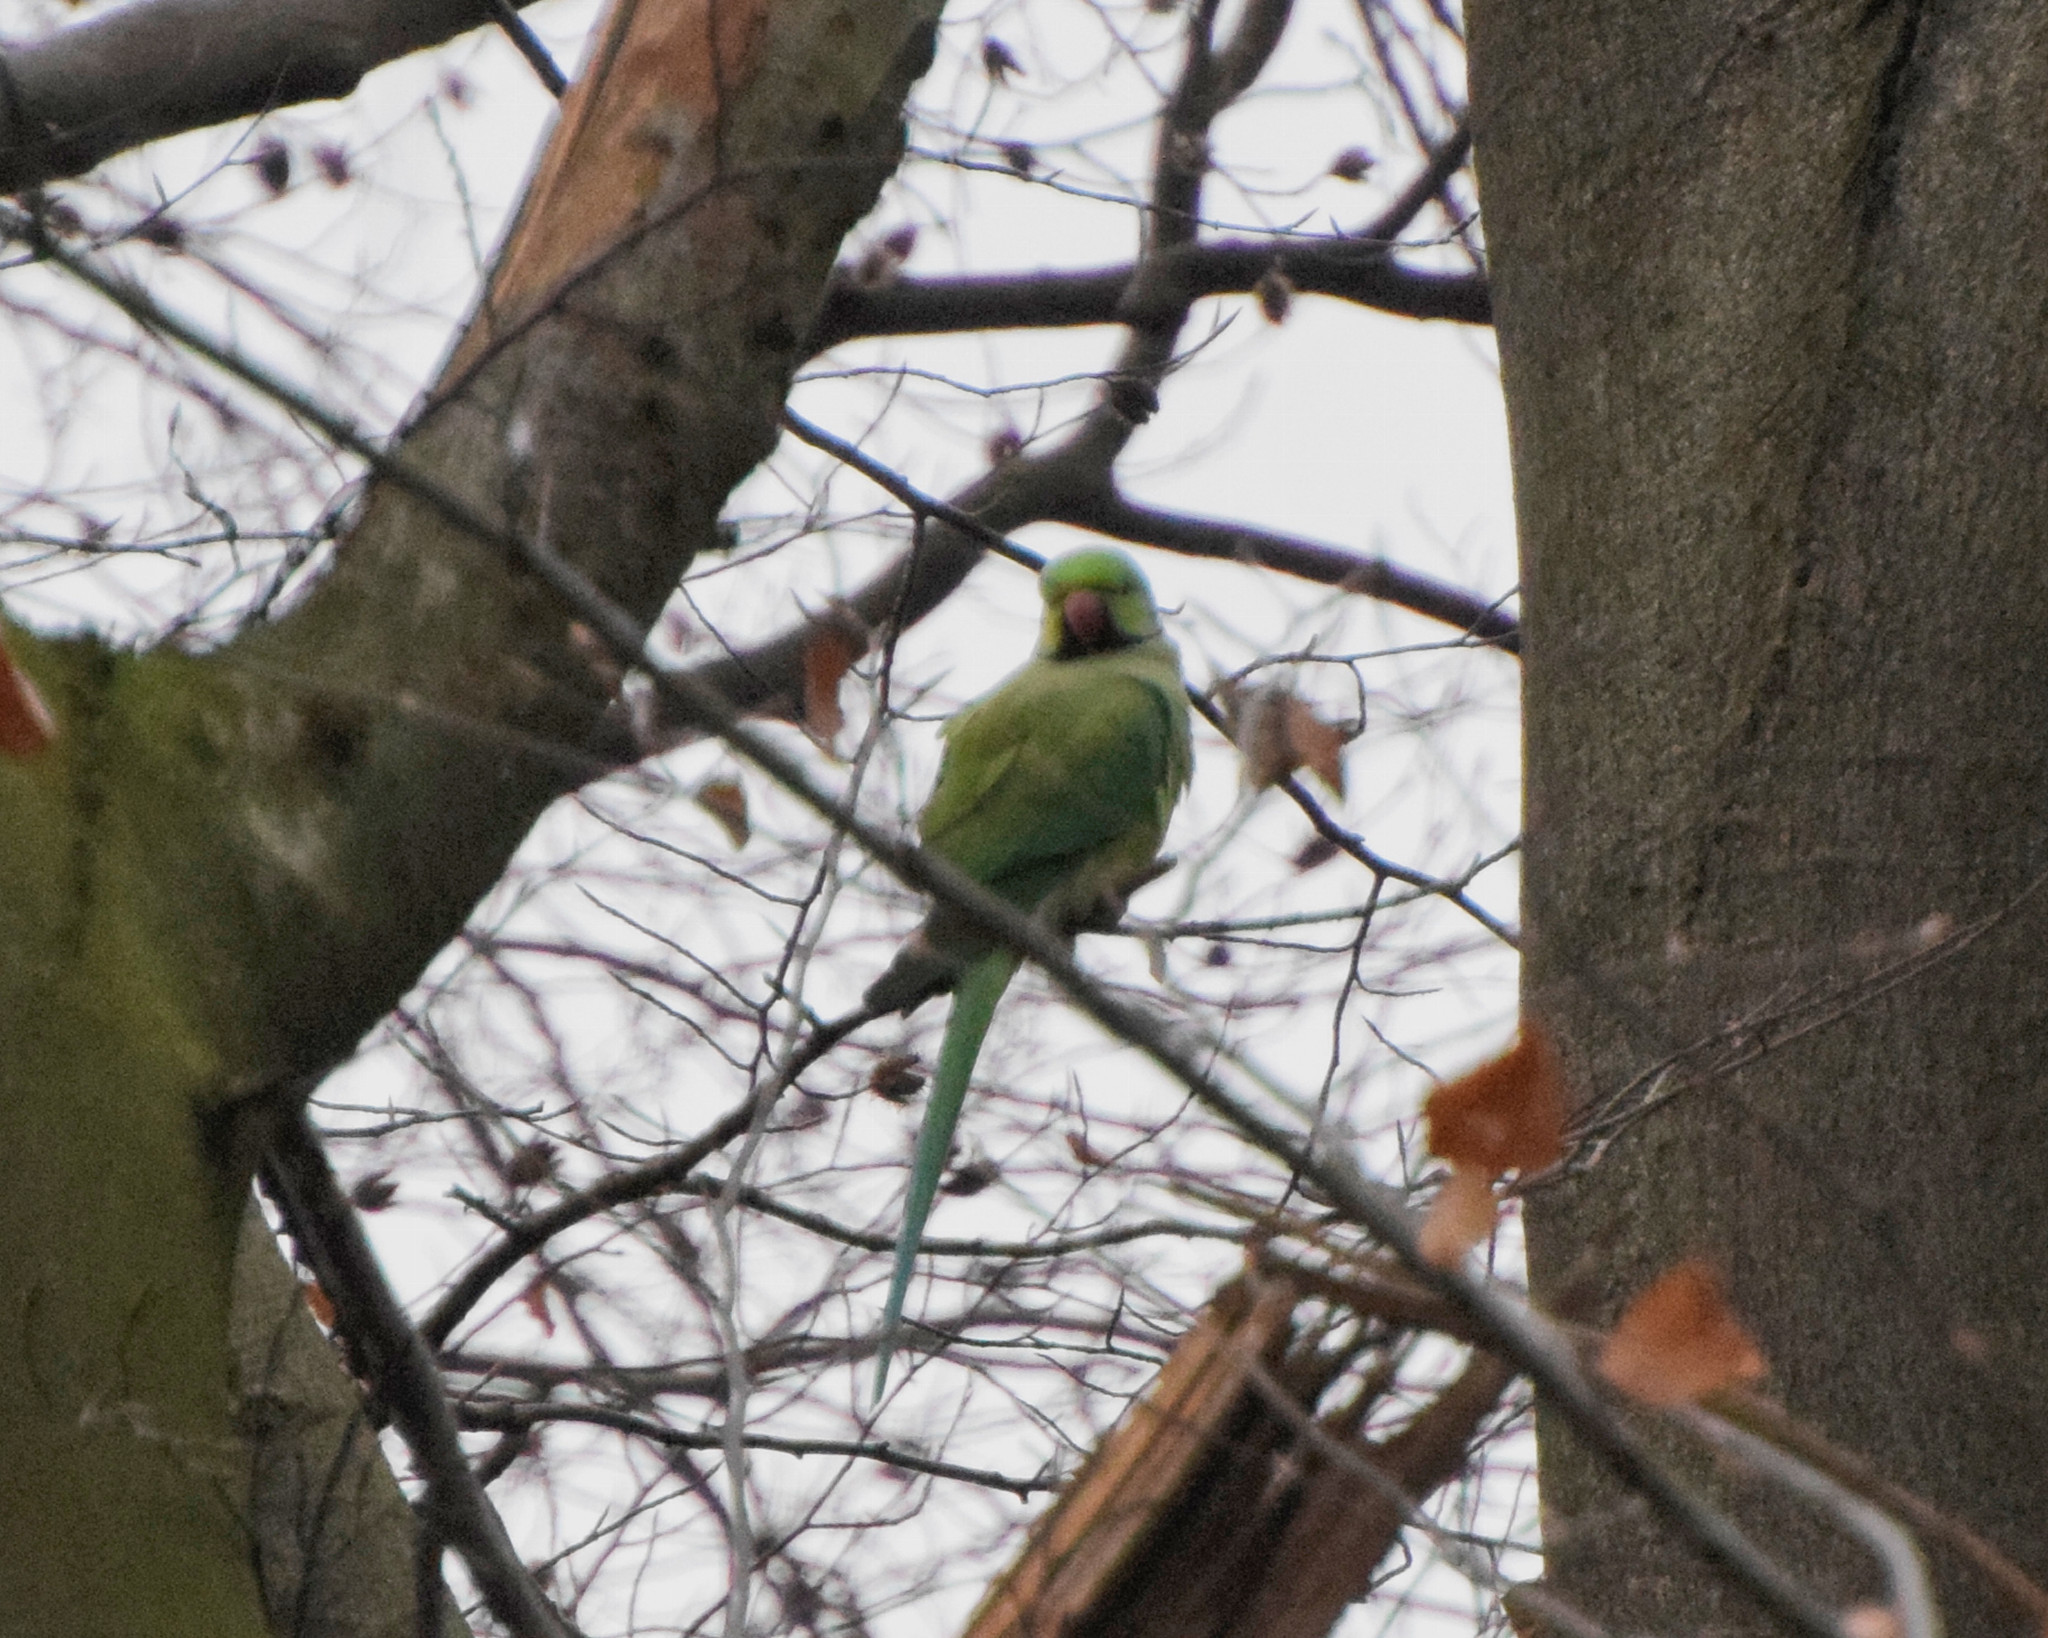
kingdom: Animalia
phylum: Chordata
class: Aves
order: Psittaciformes
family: Psittacidae
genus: Psittacula
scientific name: Psittacula krameri
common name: Rose-ringed parakeet
